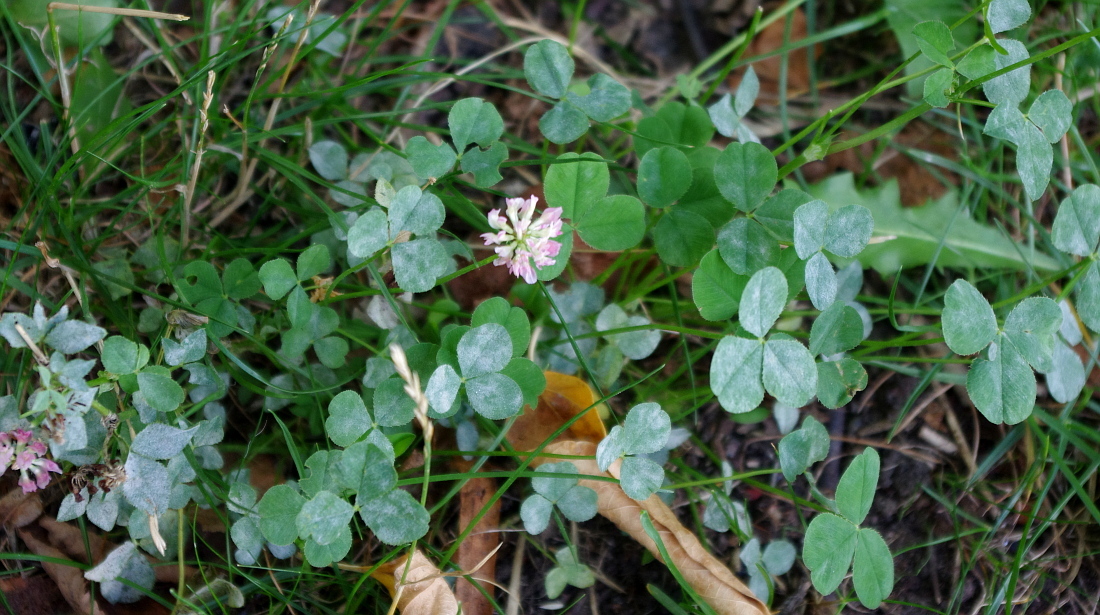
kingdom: Plantae
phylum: Tracheophyta
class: Magnoliopsida
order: Fabales
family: Fabaceae
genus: Trifolium
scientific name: Trifolium hybridum
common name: Alsike clover
